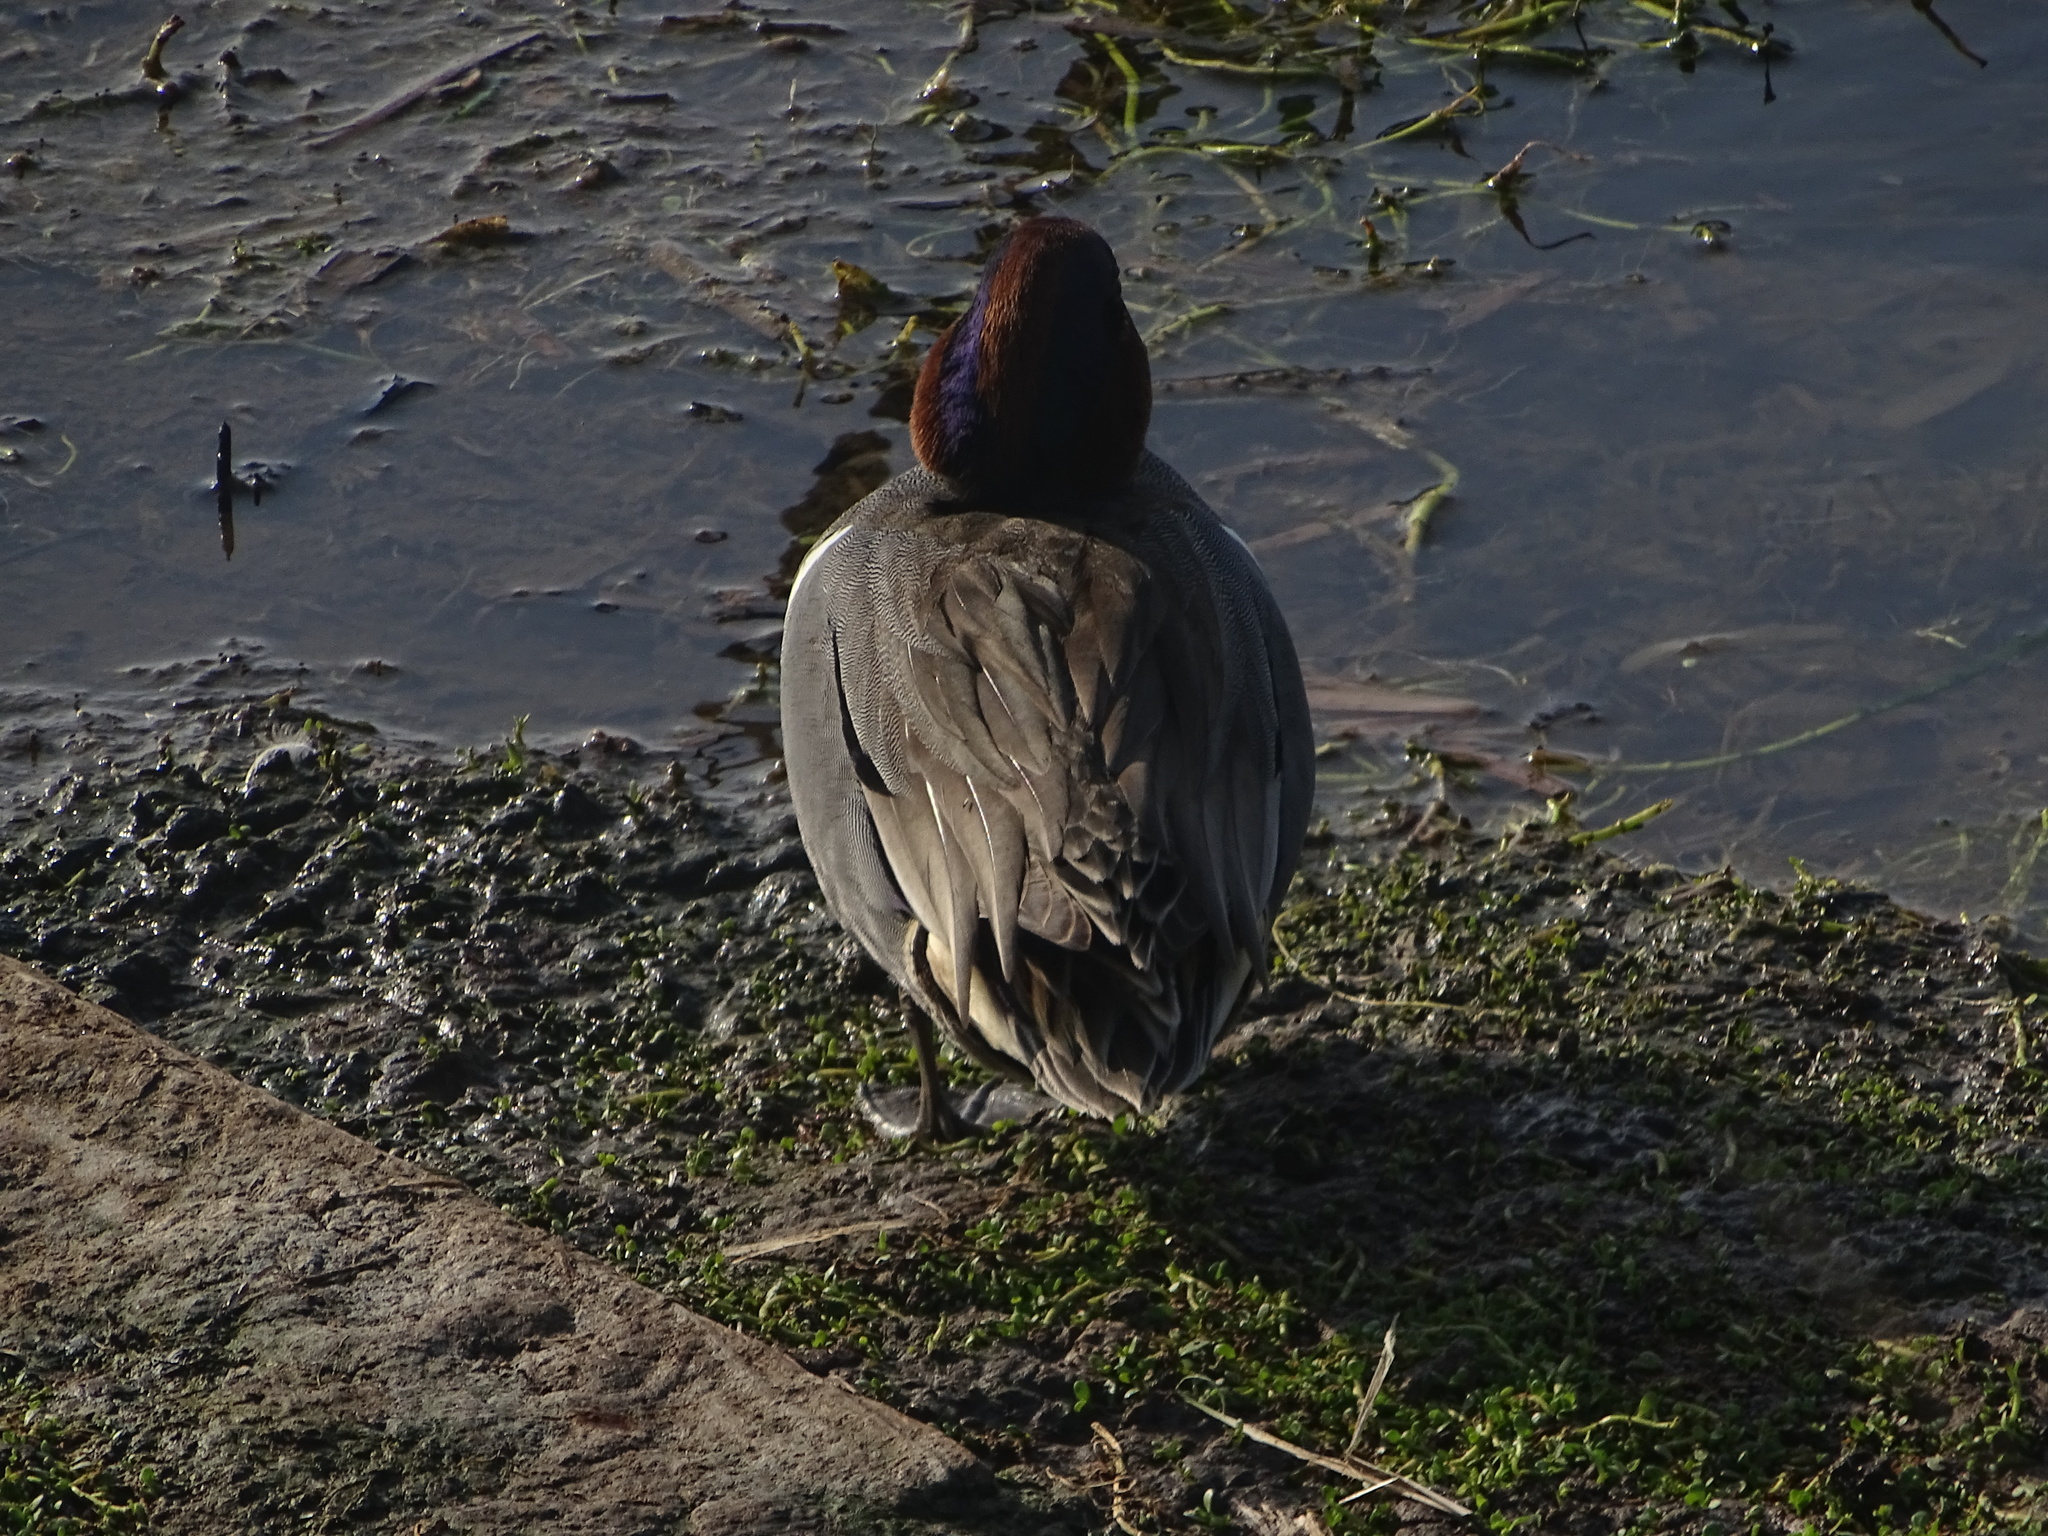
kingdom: Animalia
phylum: Chordata
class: Aves
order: Anseriformes
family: Anatidae
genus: Anas
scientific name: Anas crecca
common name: Eurasian teal
